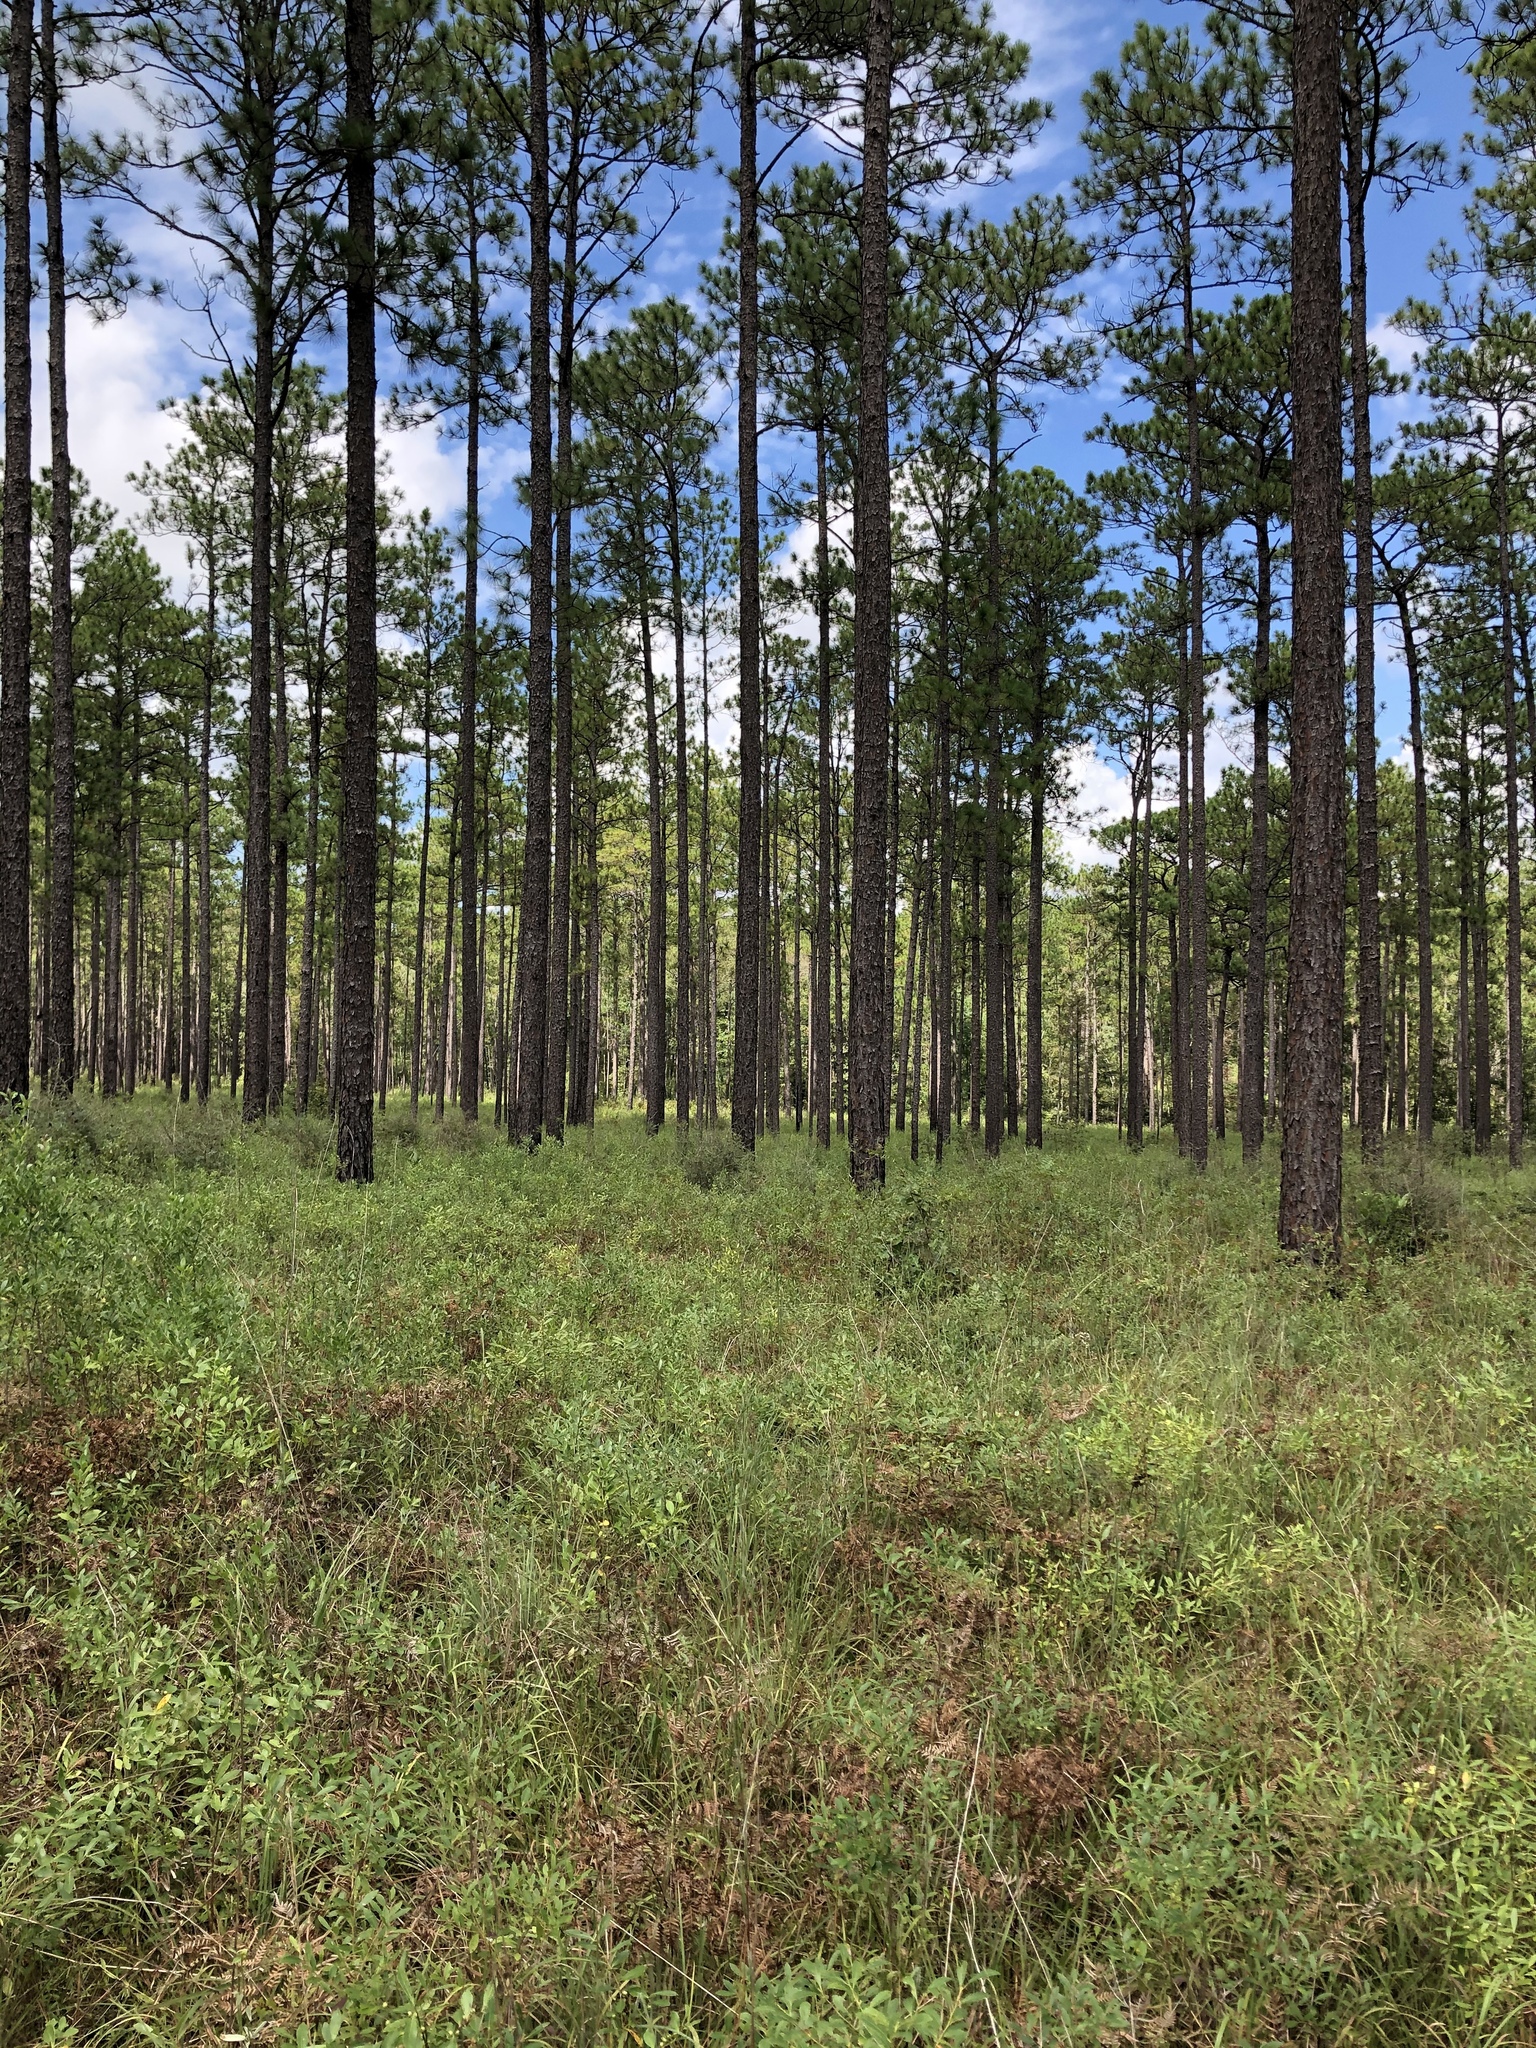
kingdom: Plantae
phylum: Tracheophyta
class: Magnoliopsida
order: Asterales
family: Campanulaceae
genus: Lobelia
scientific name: Lobelia brevifolia
